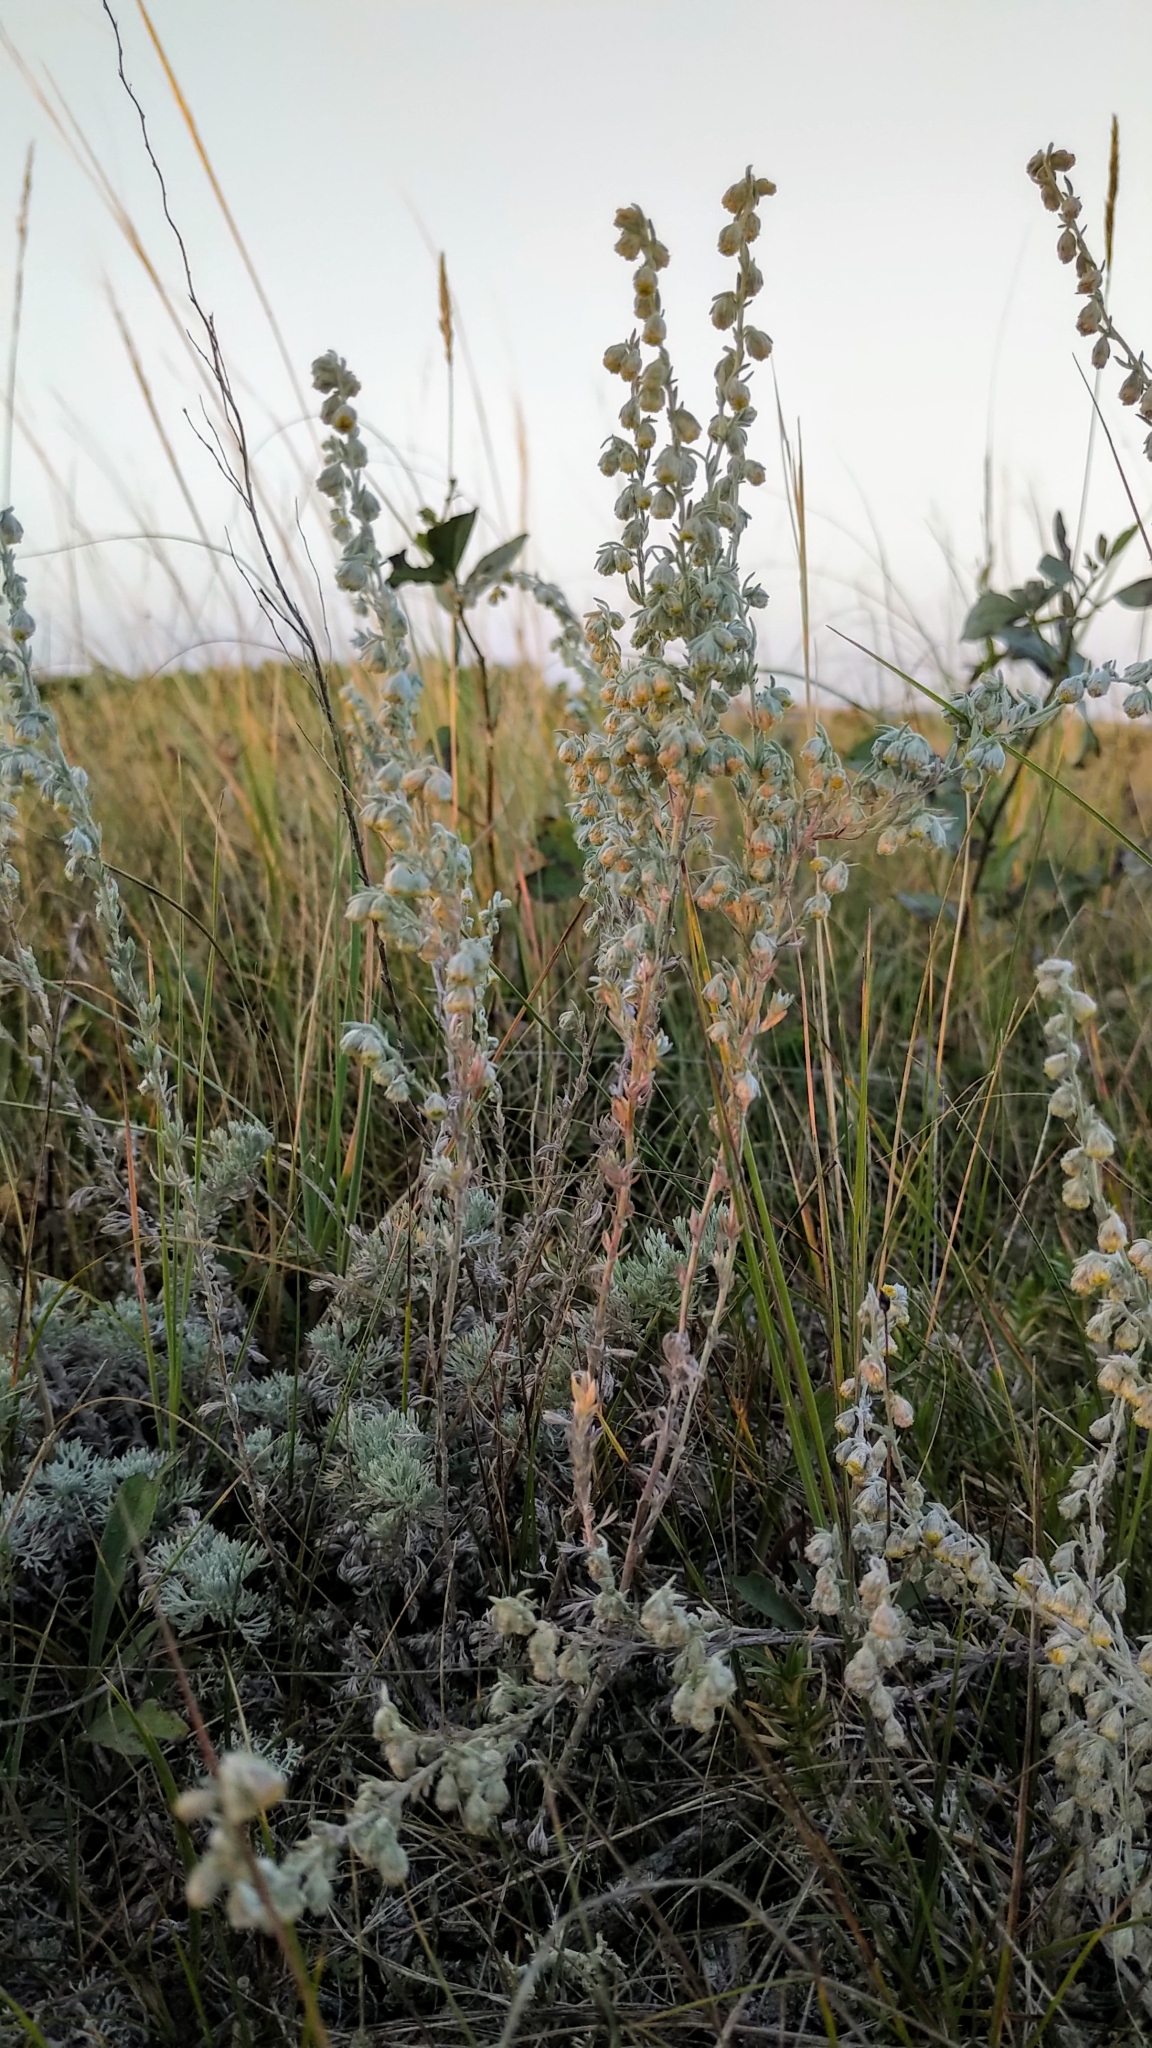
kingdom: Plantae
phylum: Tracheophyta
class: Magnoliopsida
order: Asterales
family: Asteraceae
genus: Artemisia
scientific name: Artemisia frigida
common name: Prairie sagewort
